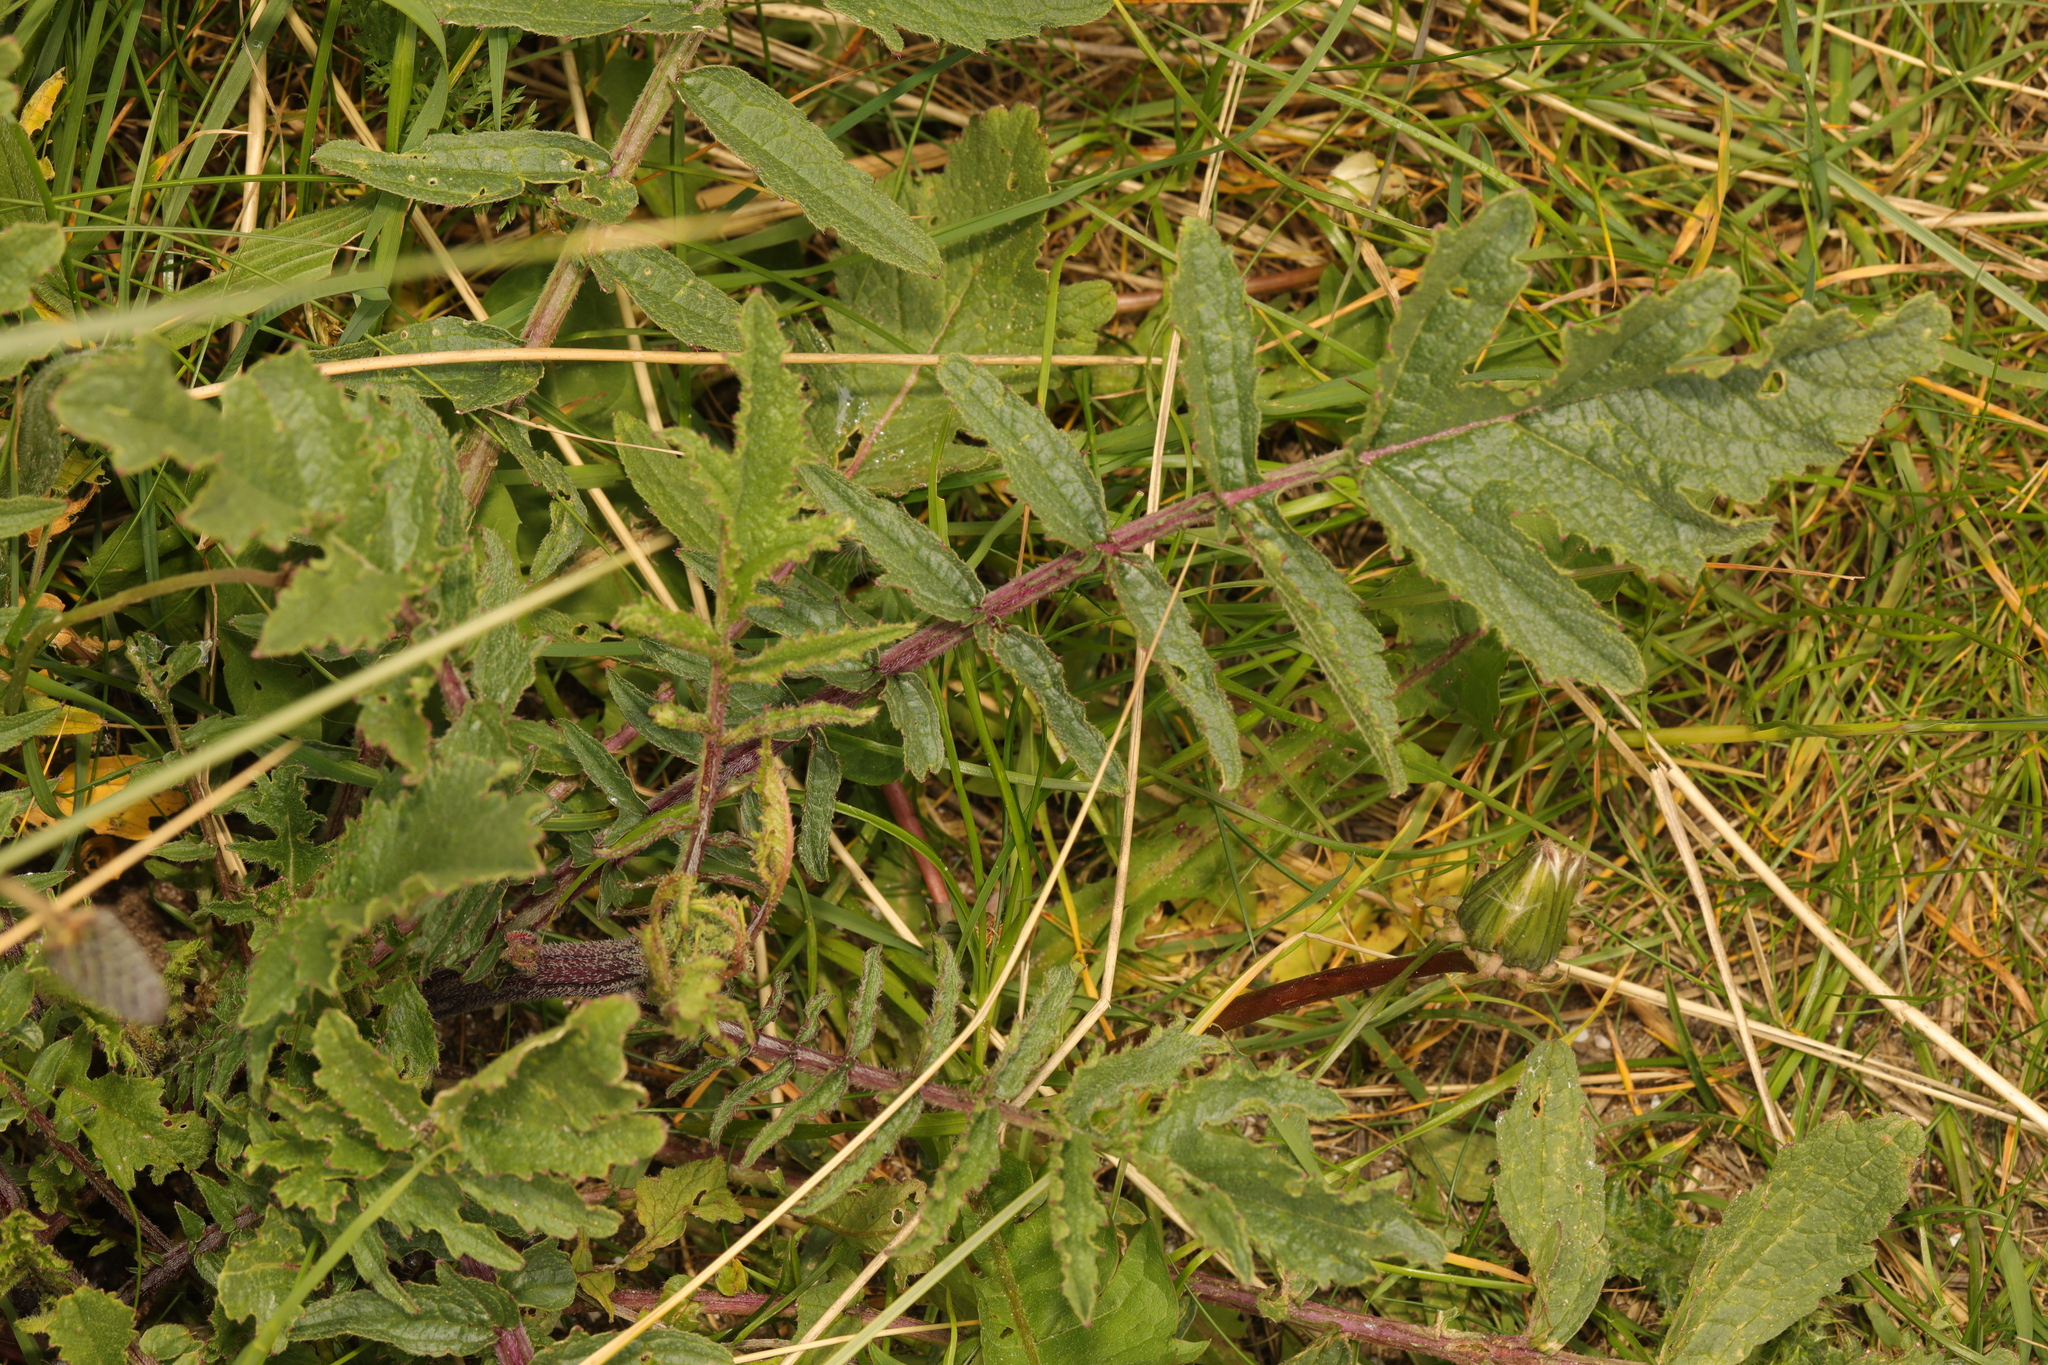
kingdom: Plantae
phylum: Tracheophyta
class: Magnoliopsida
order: Brassicales
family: Brassicaceae
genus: Raphanus
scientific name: Raphanus raphanistrum
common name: Wild radish
